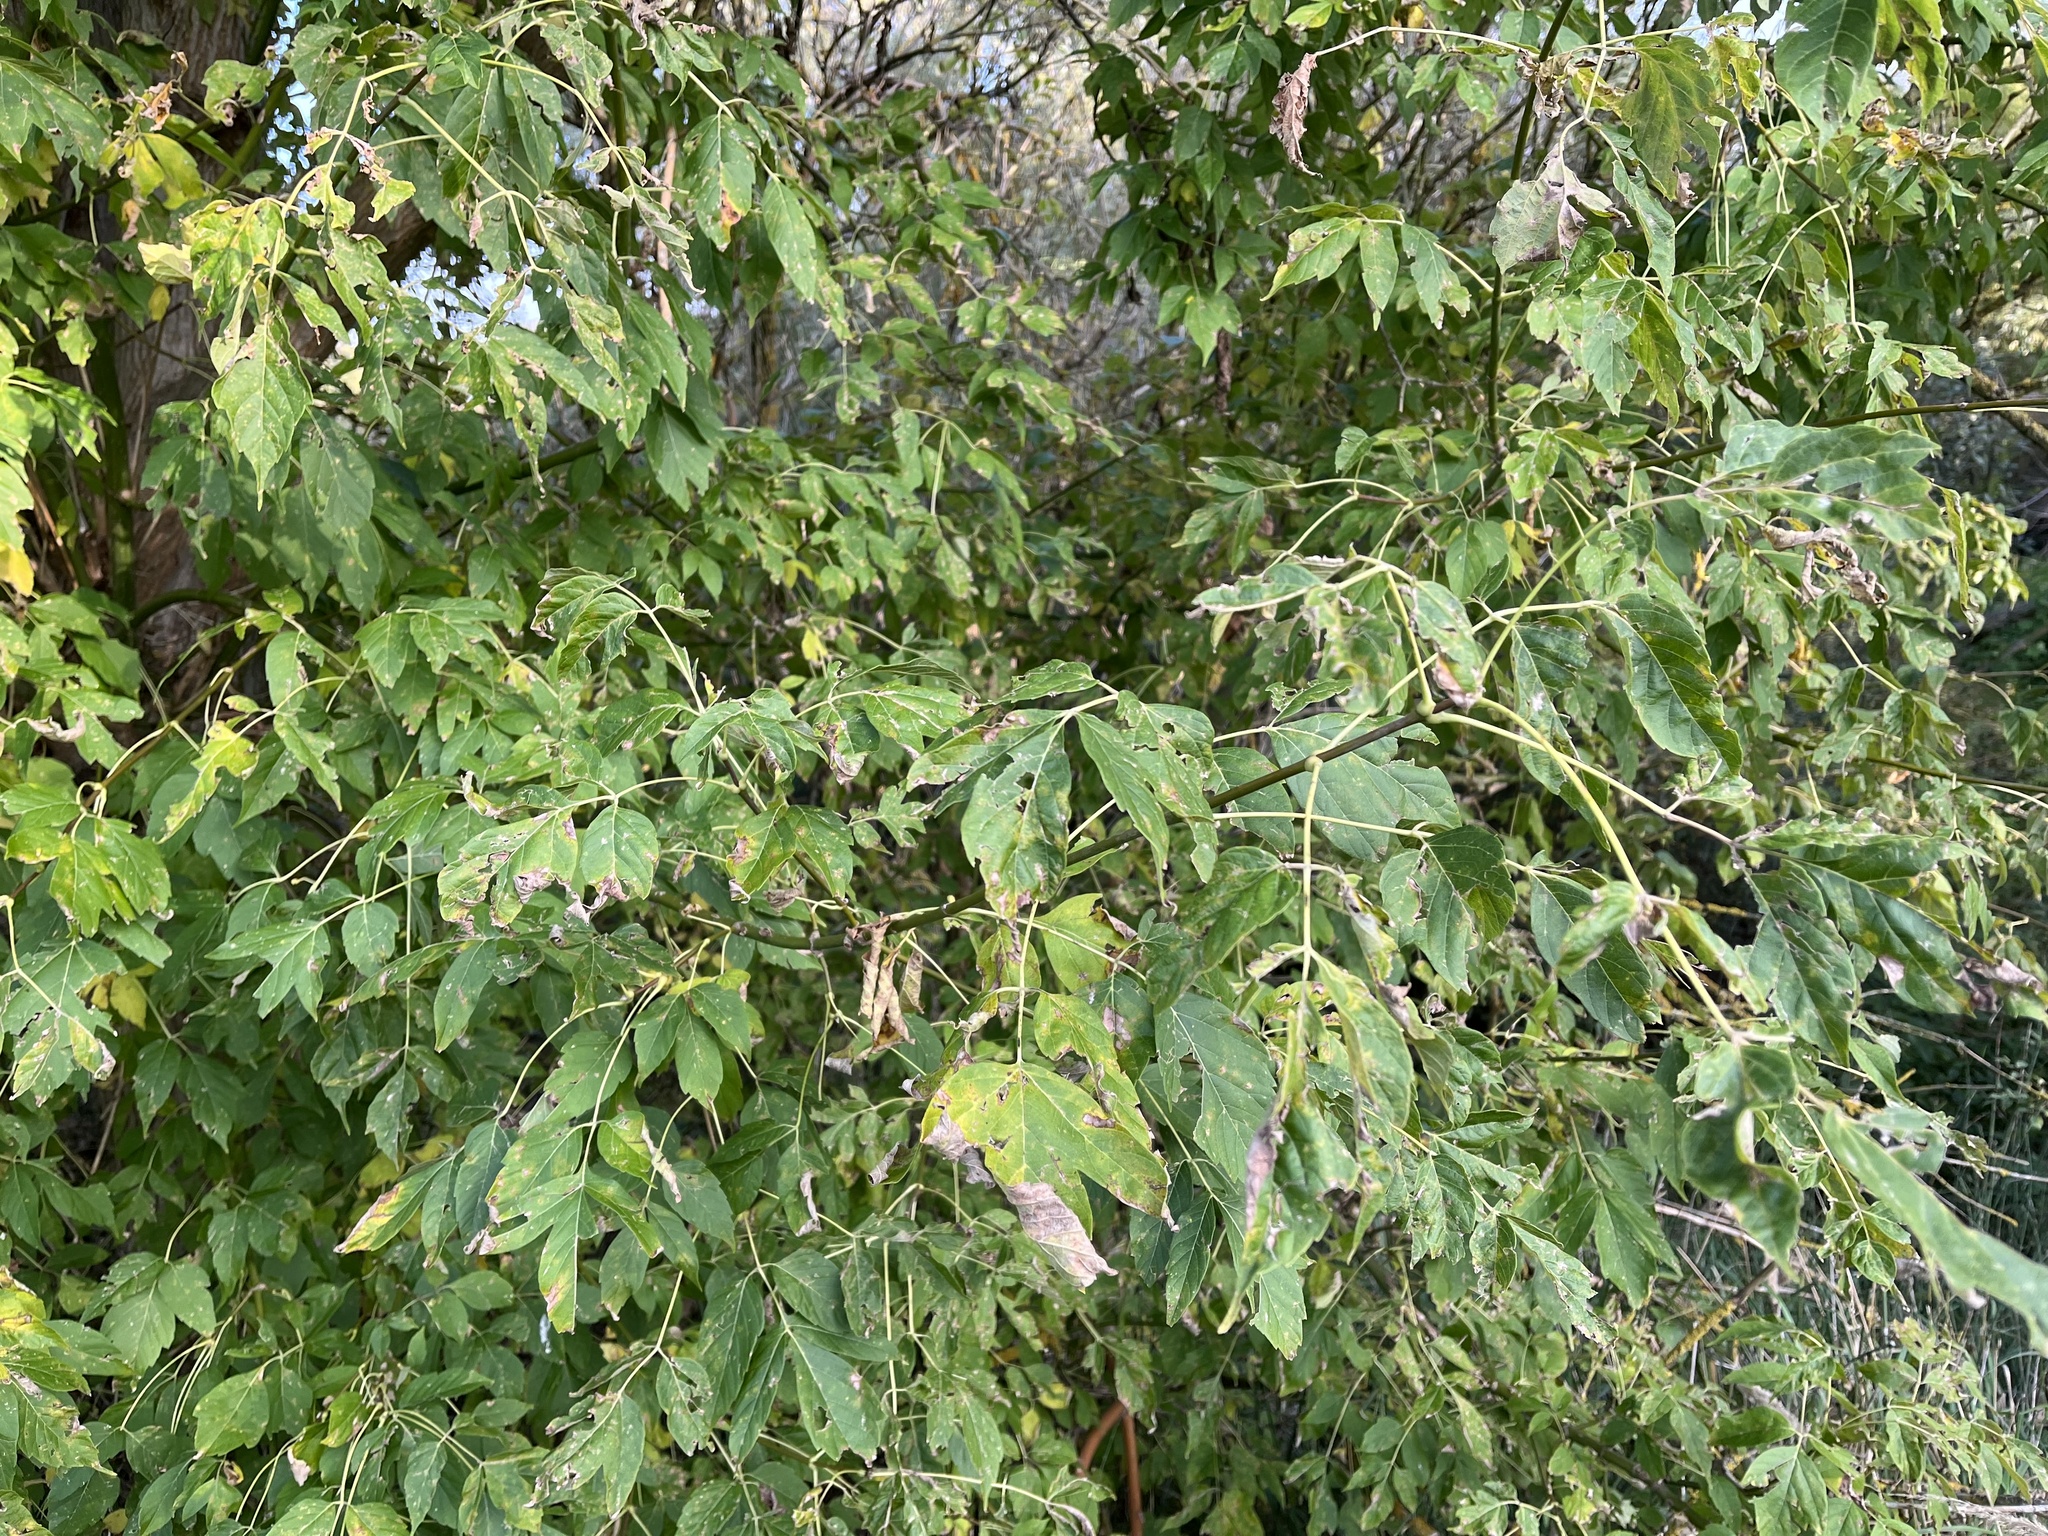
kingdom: Plantae
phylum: Tracheophyta
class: Magnoliopsida
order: Sapindales
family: Sapindaceae
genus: Acer
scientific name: Acer negundo
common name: Ashleaf maple
